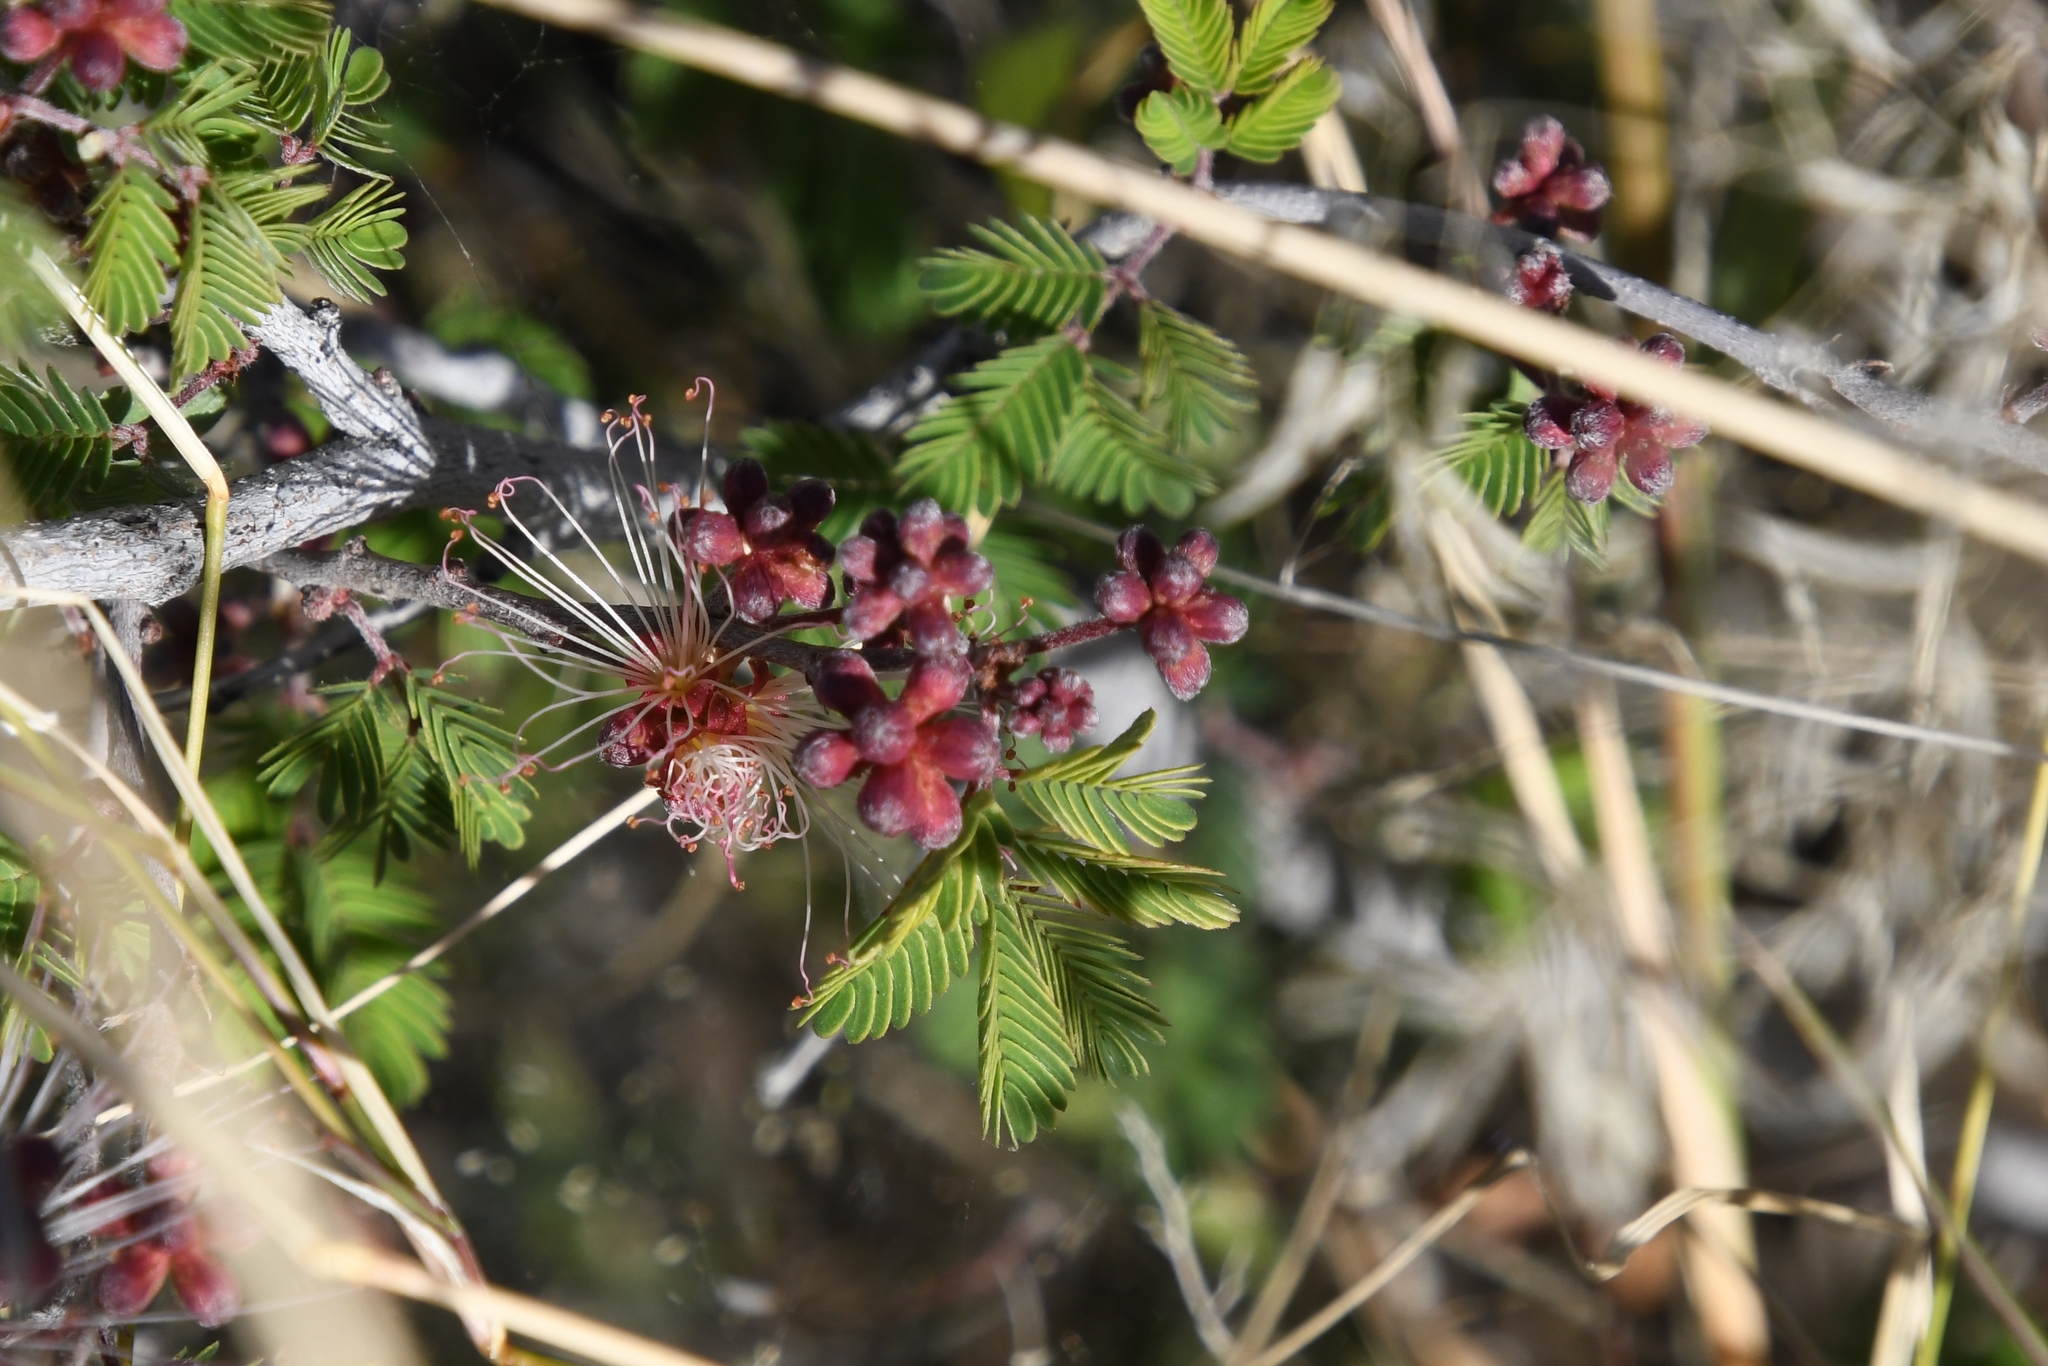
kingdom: Plantae
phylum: Tracheophyta
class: Magnoliopsida
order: Fabales
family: Fabaceae
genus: Calliandra
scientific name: Calliandra eriophylla
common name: Fairy-duster
